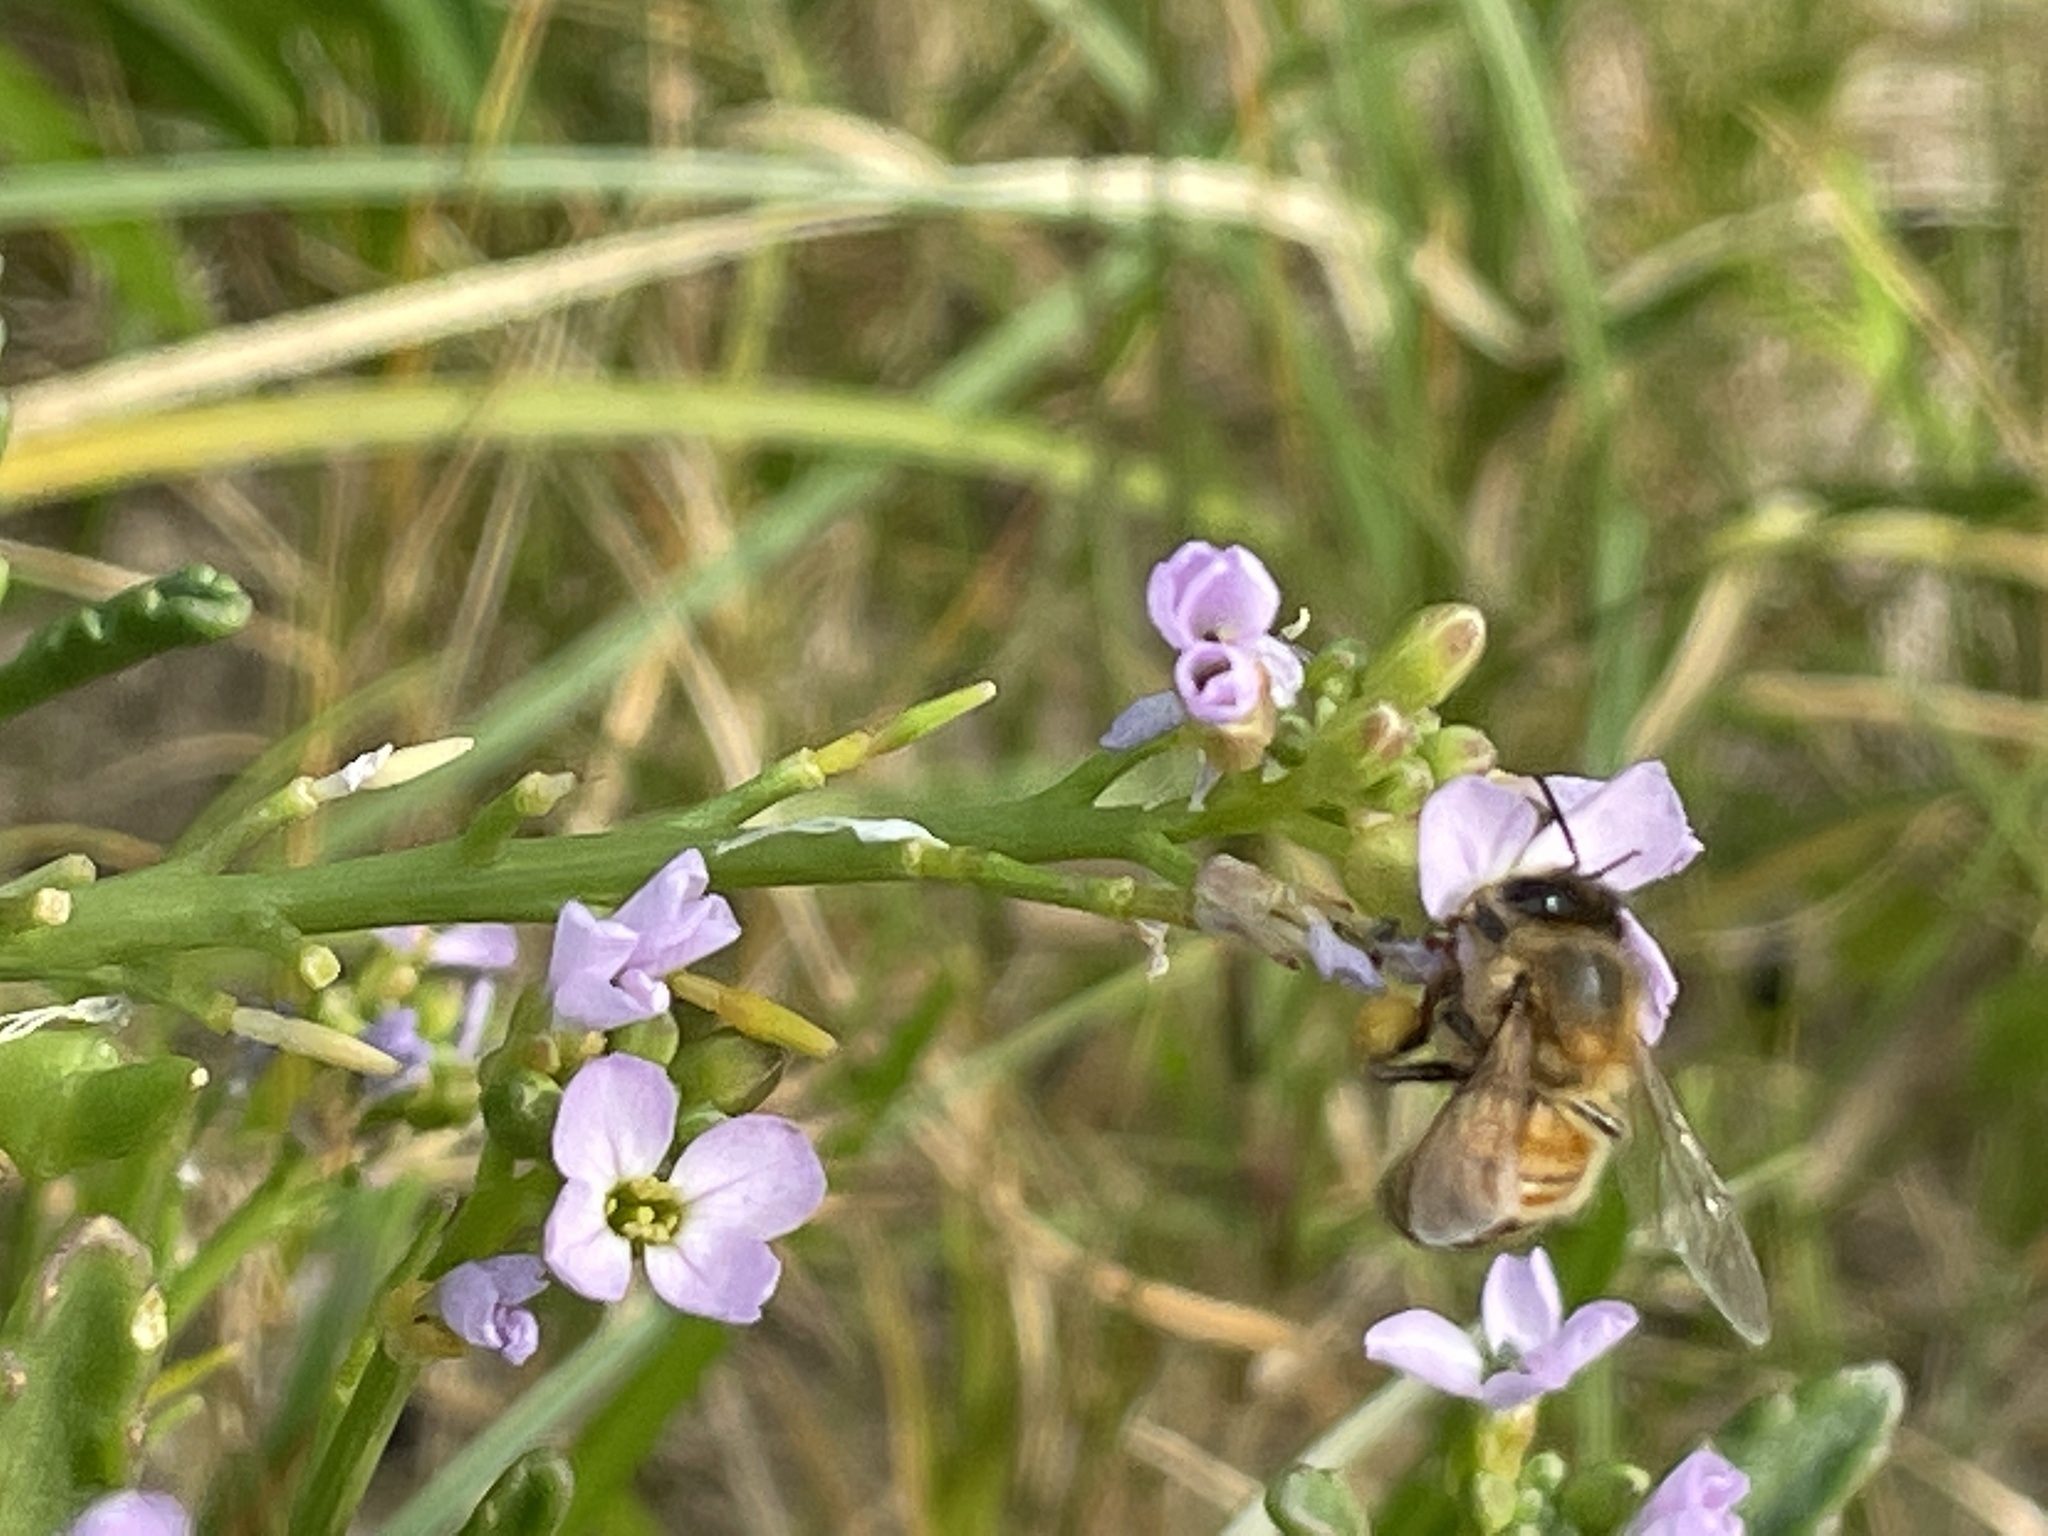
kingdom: Animalia
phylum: Arthropoda
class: Insecta
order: Hymenoptera
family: Apidae
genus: Apis
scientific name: Apis mellifera
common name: Honey bee
